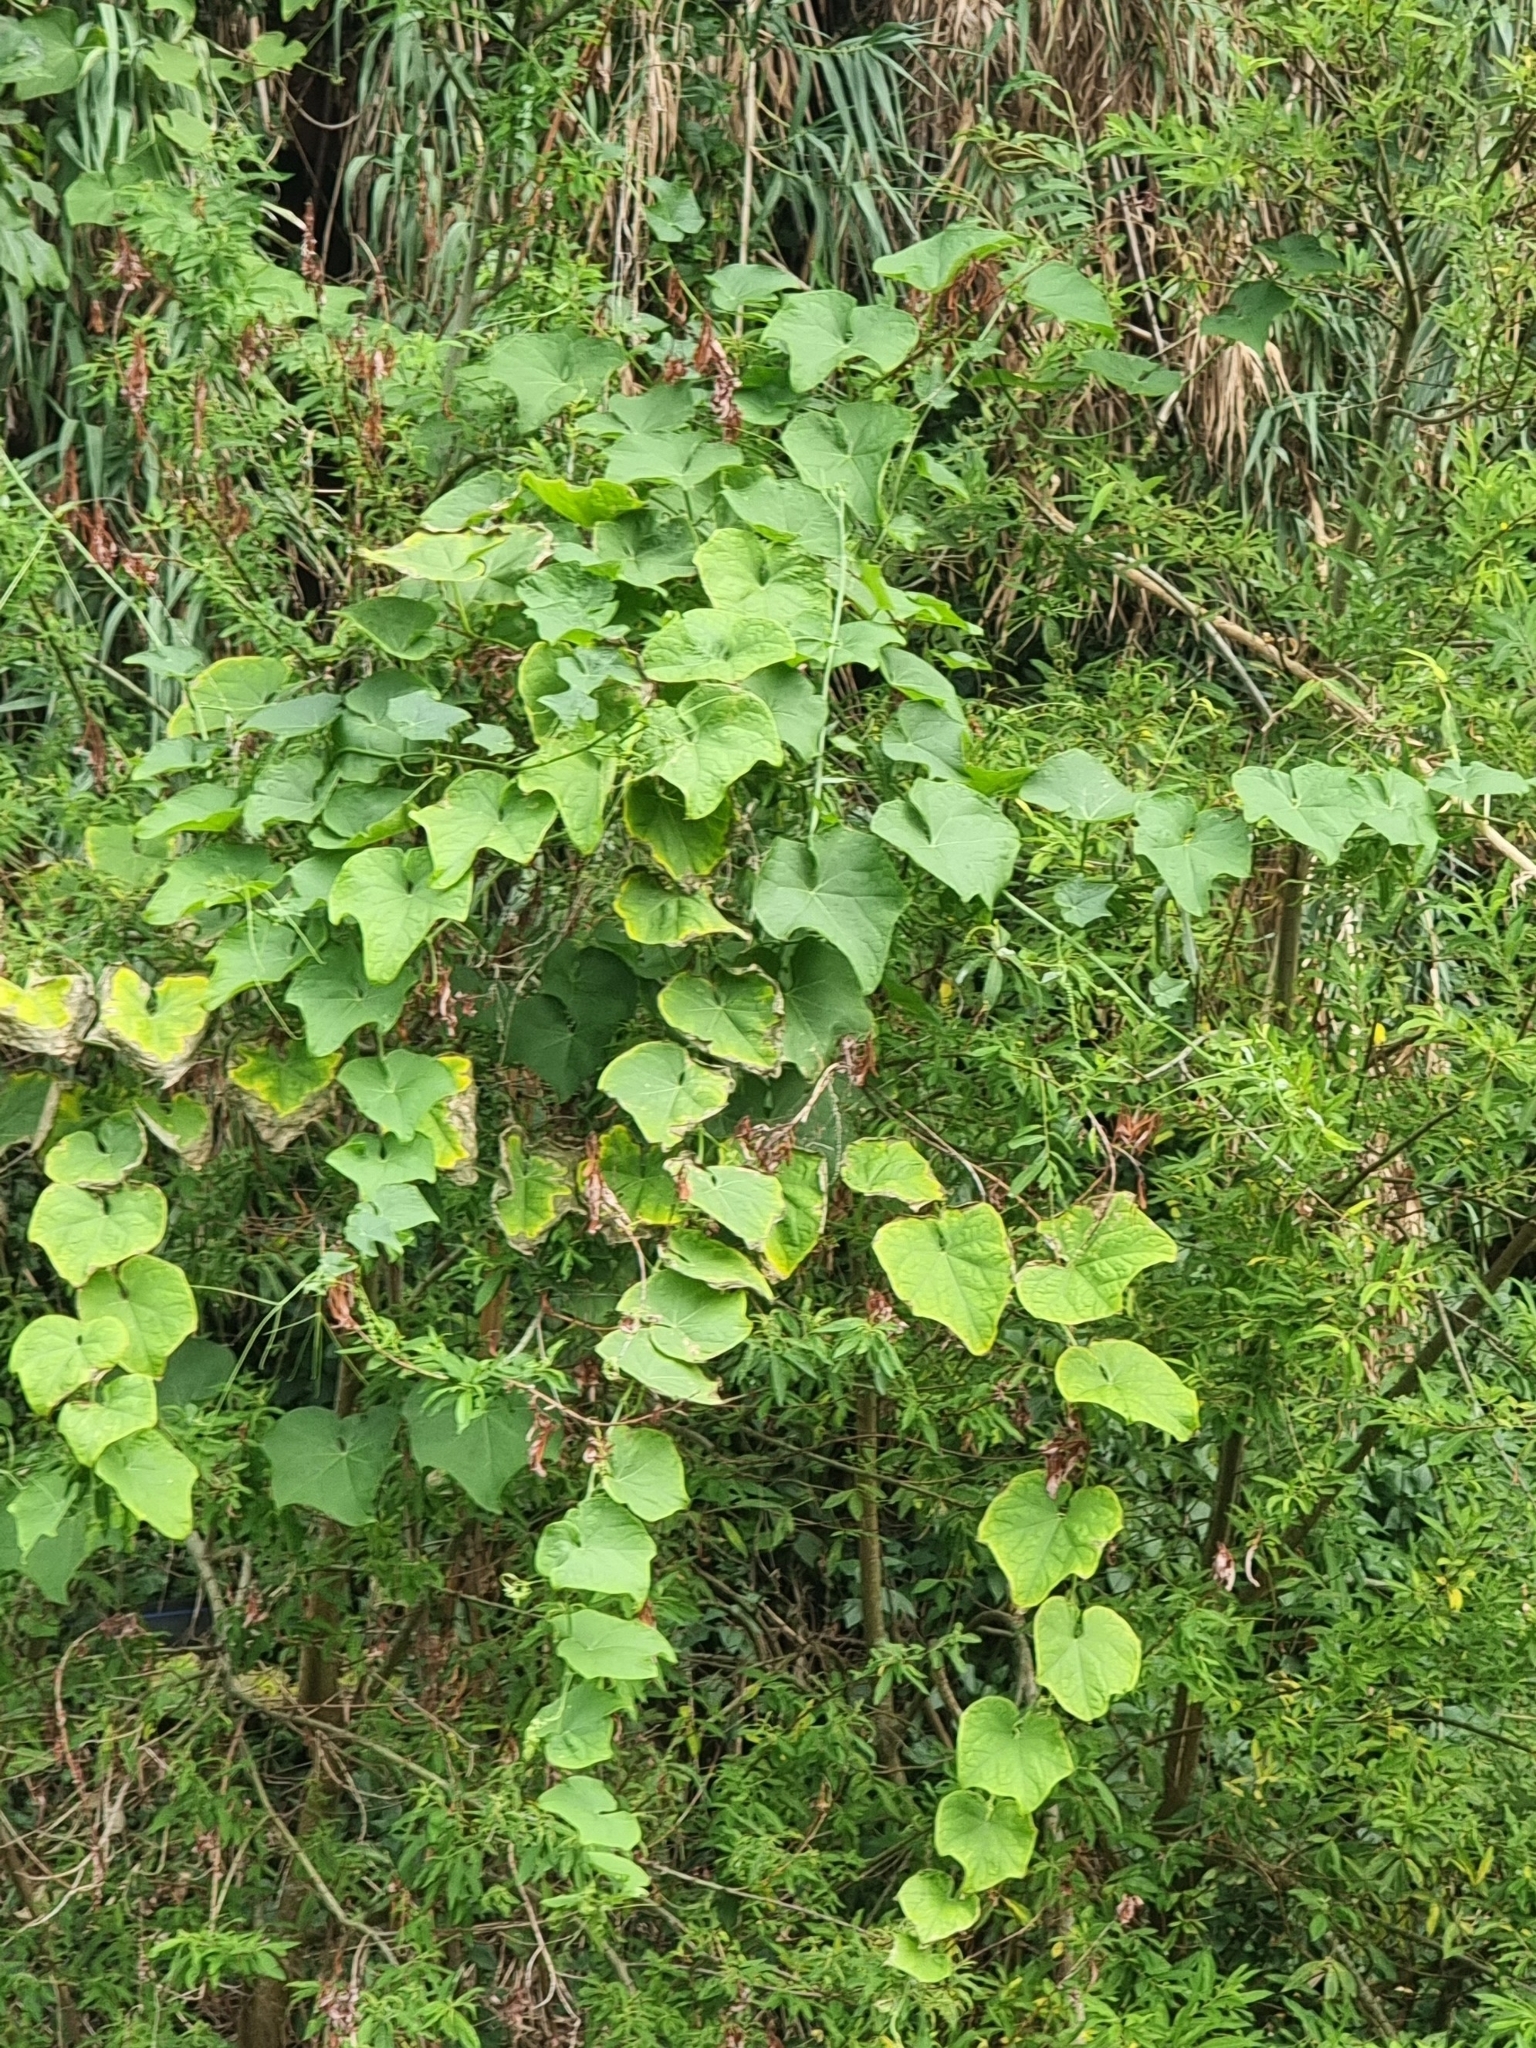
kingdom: Plantae
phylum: Tracheophyta
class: Magnoliopsida
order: Cucurbitales
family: Cucurbitaceae
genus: Sechium
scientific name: Sechium edule
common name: Chayote
